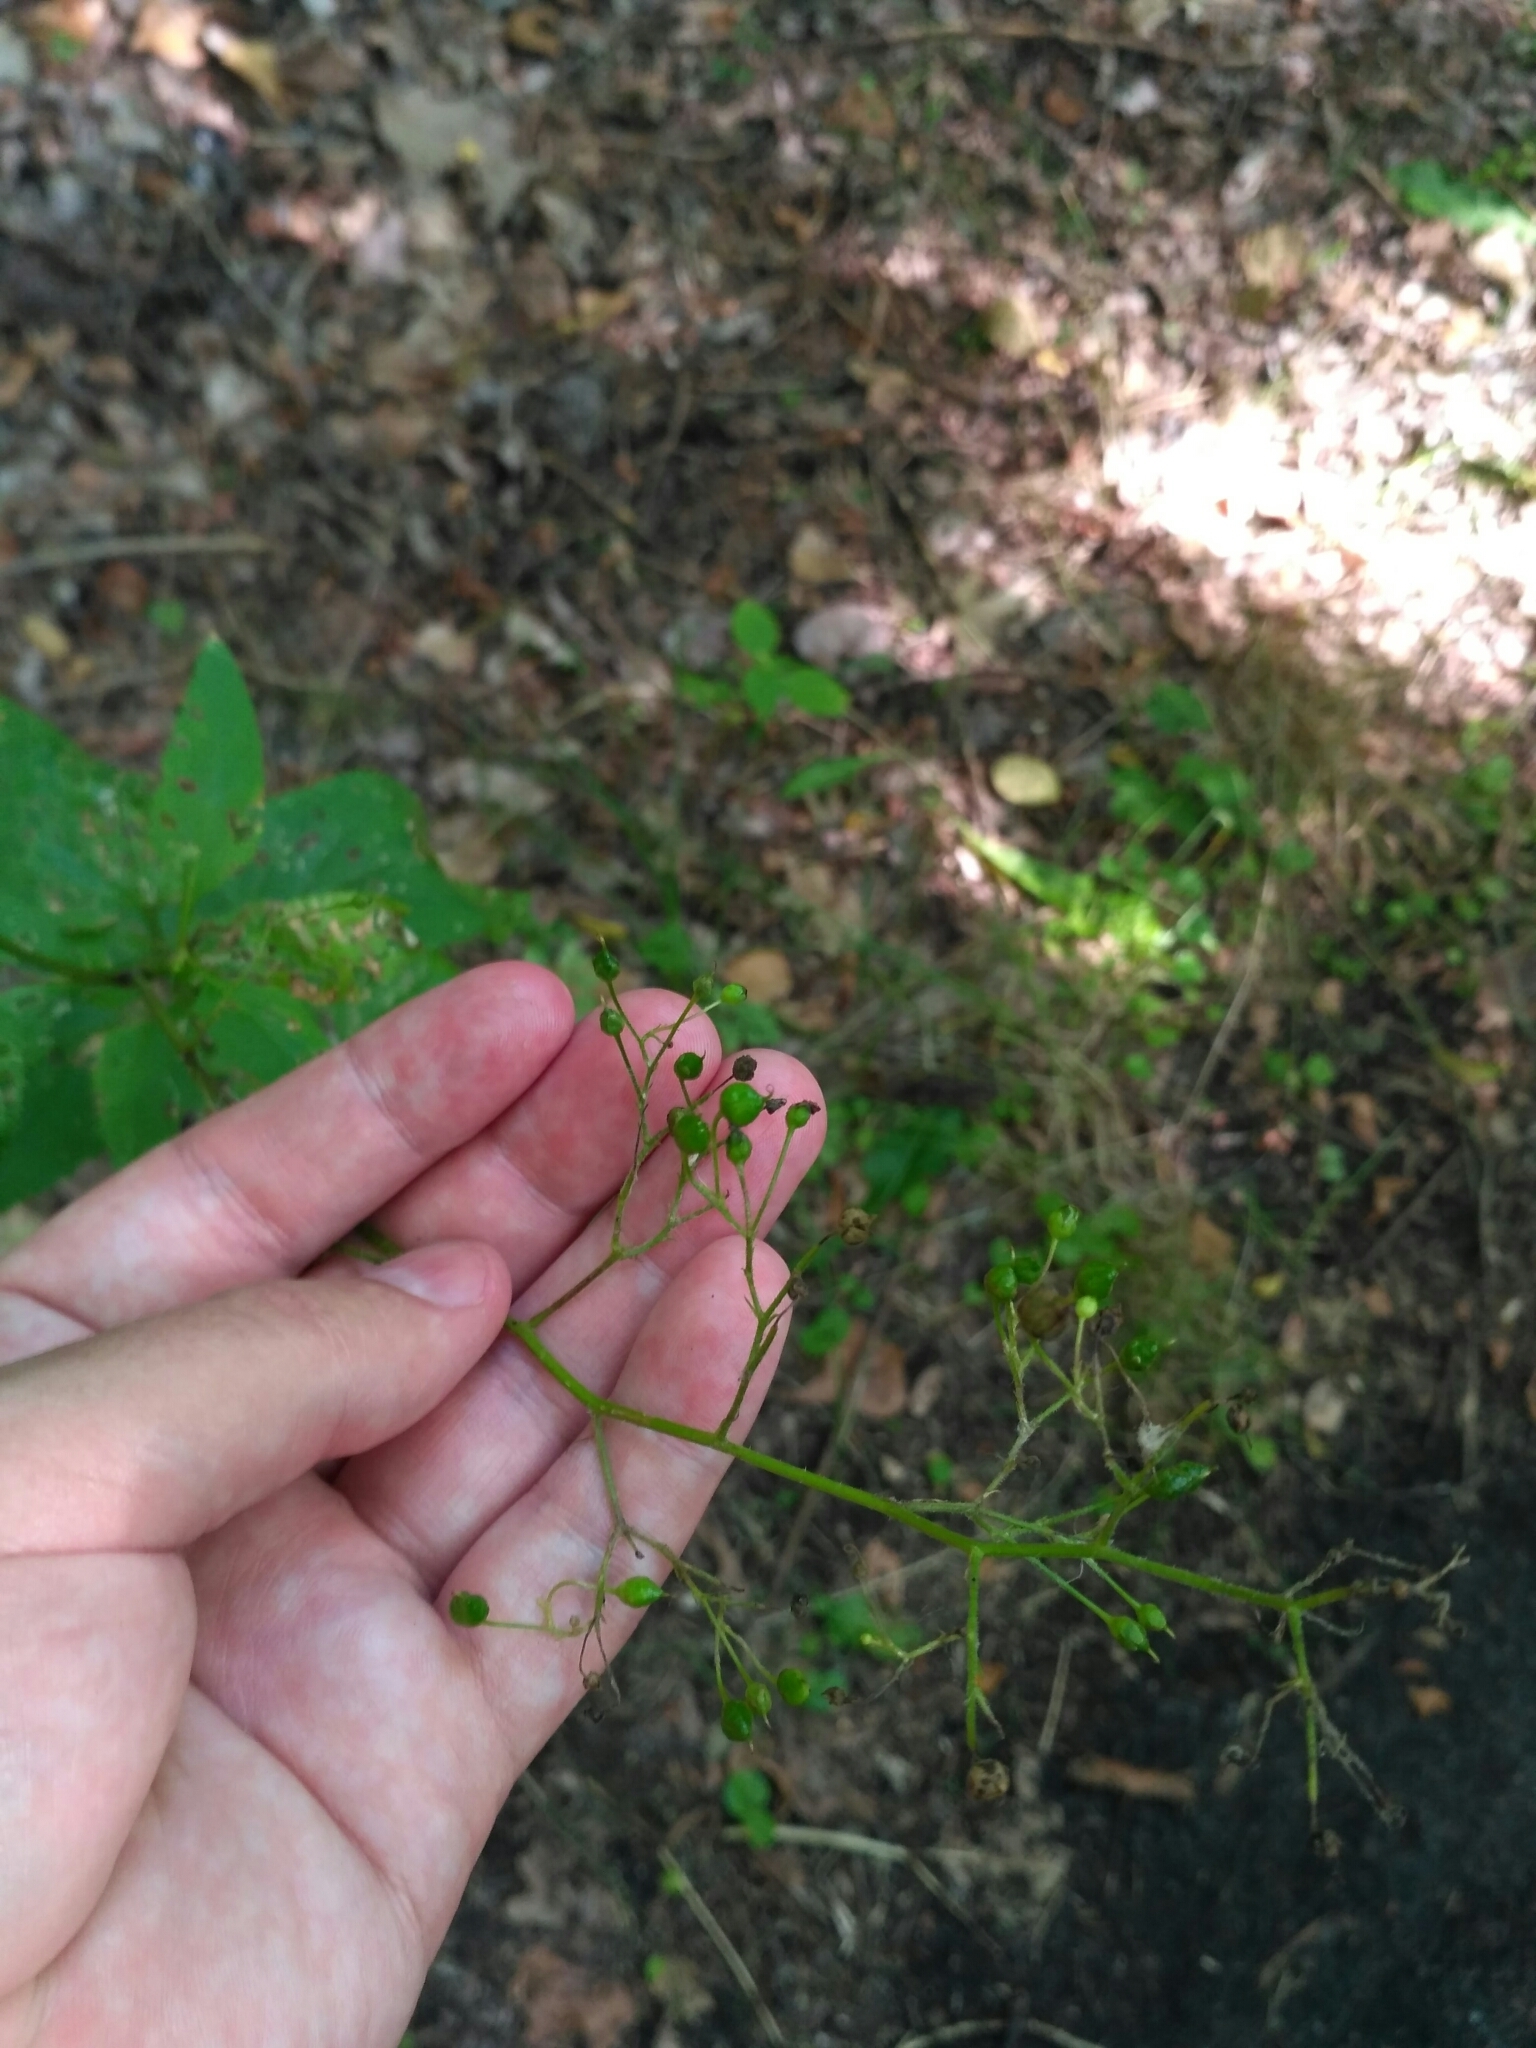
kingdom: Plantae
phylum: Tracheophyta
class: Magnoliopsida
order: Lamiales
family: Scrophulariaceae
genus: Scrophularia
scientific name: Scrophularia nodosa
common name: Common figwort
